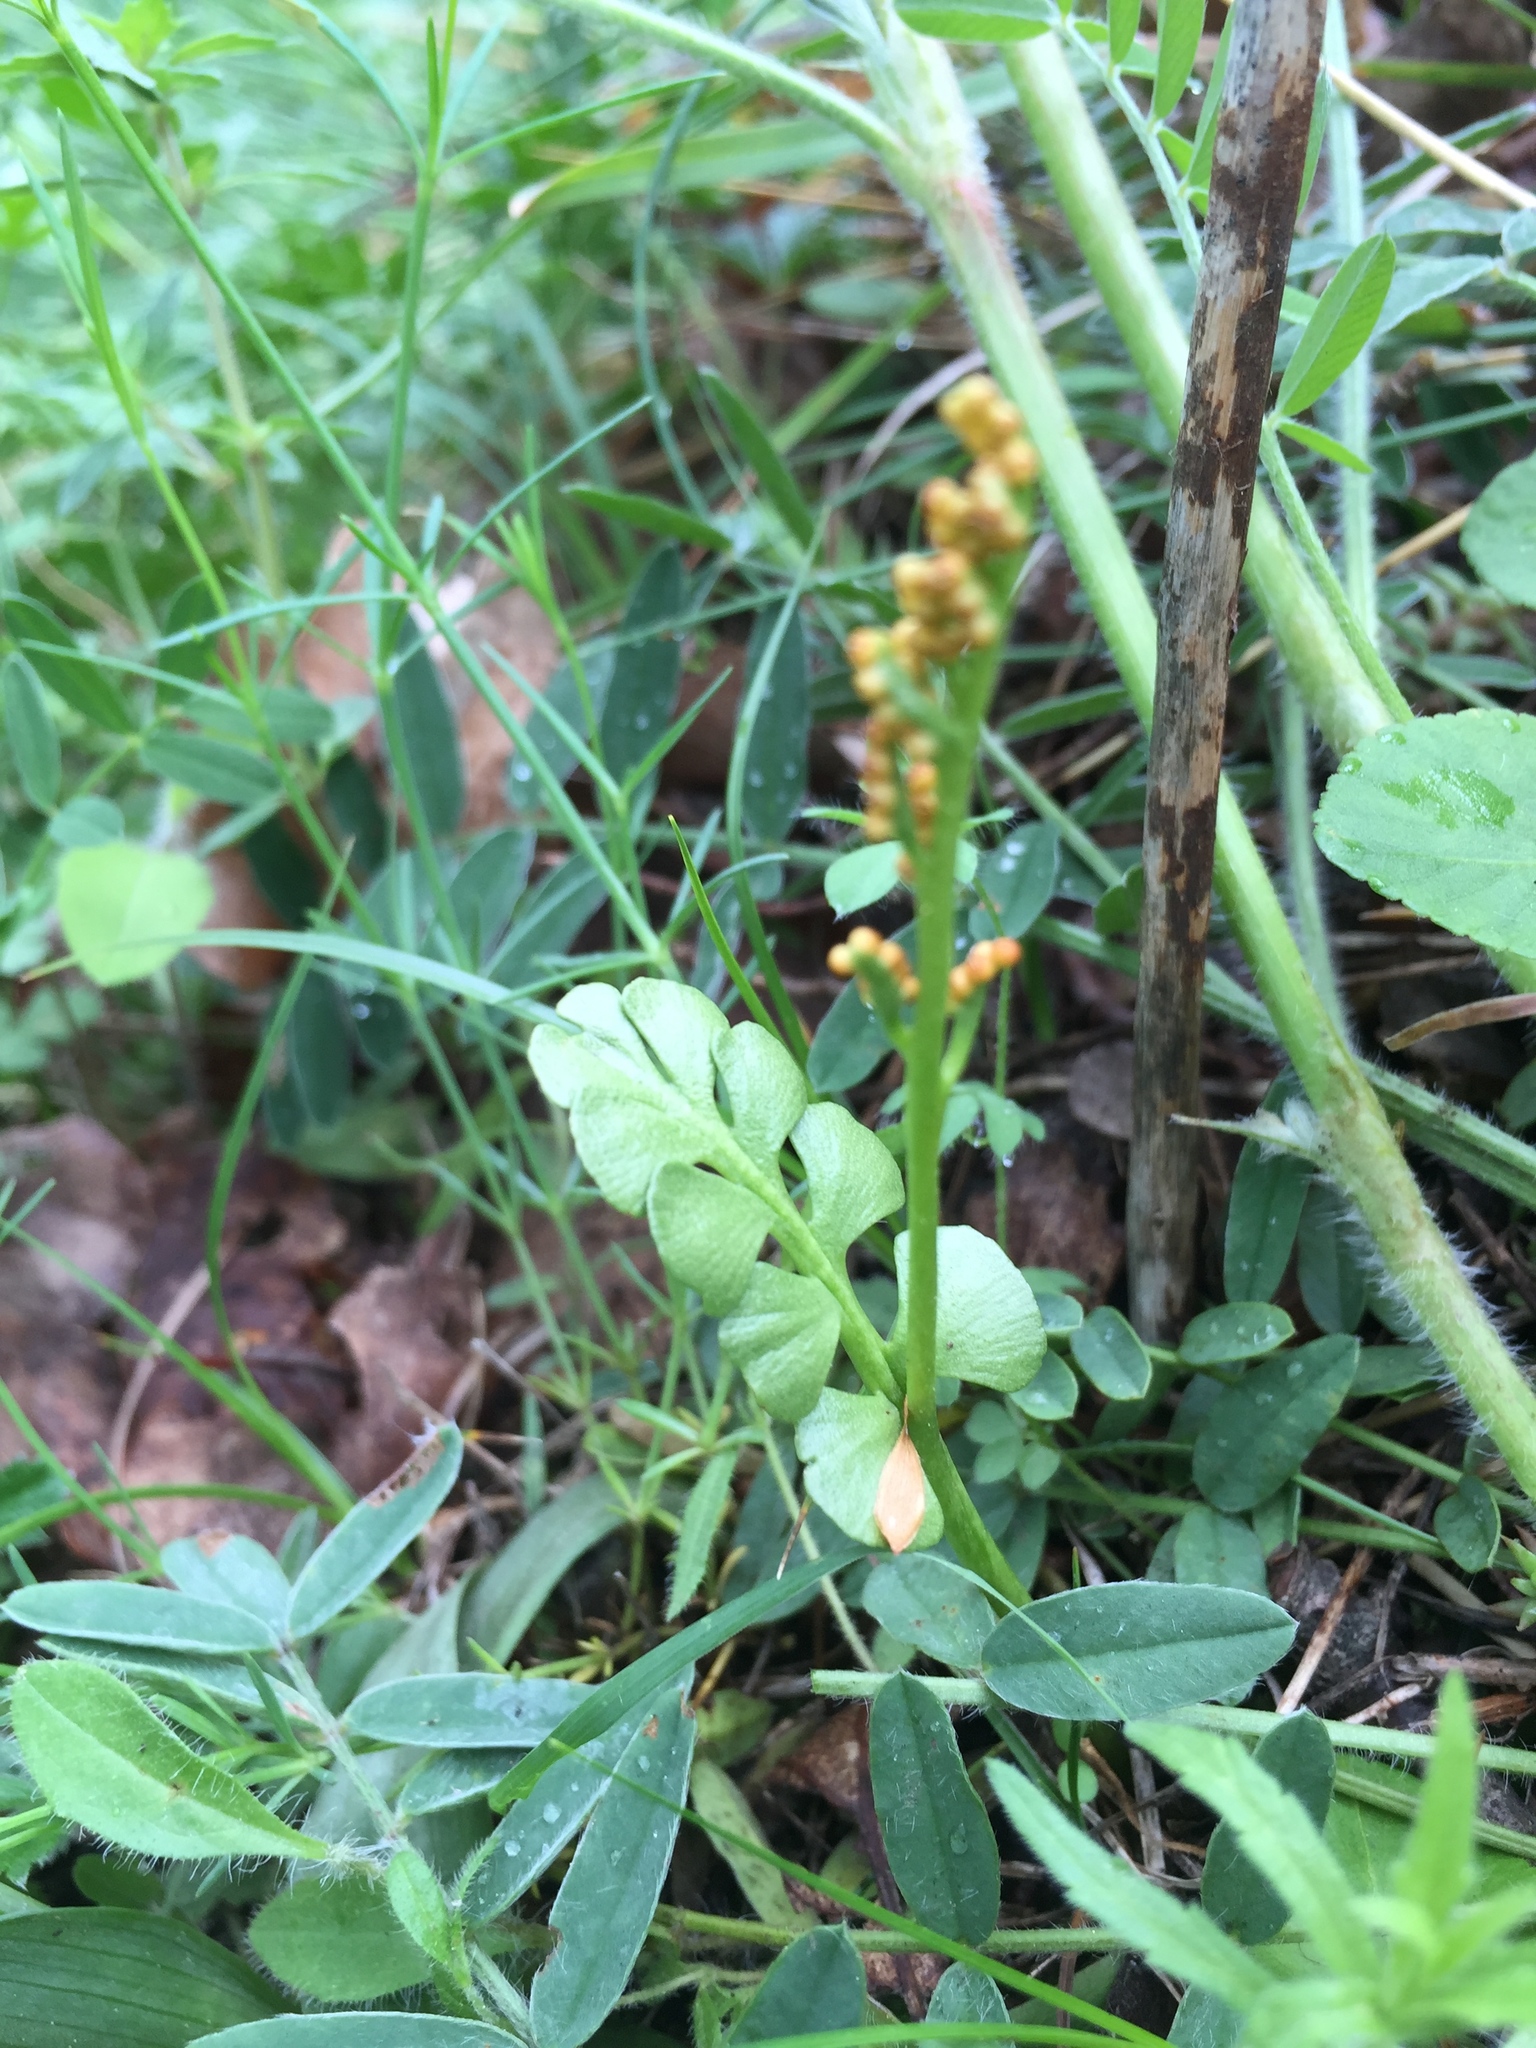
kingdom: Plantae
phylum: Tracheophyta
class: Polypodiopsida
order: Ophioglossales
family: Ophioglossaceae
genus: Botrychium
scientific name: Botrychium lunaria
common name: Moonwort
